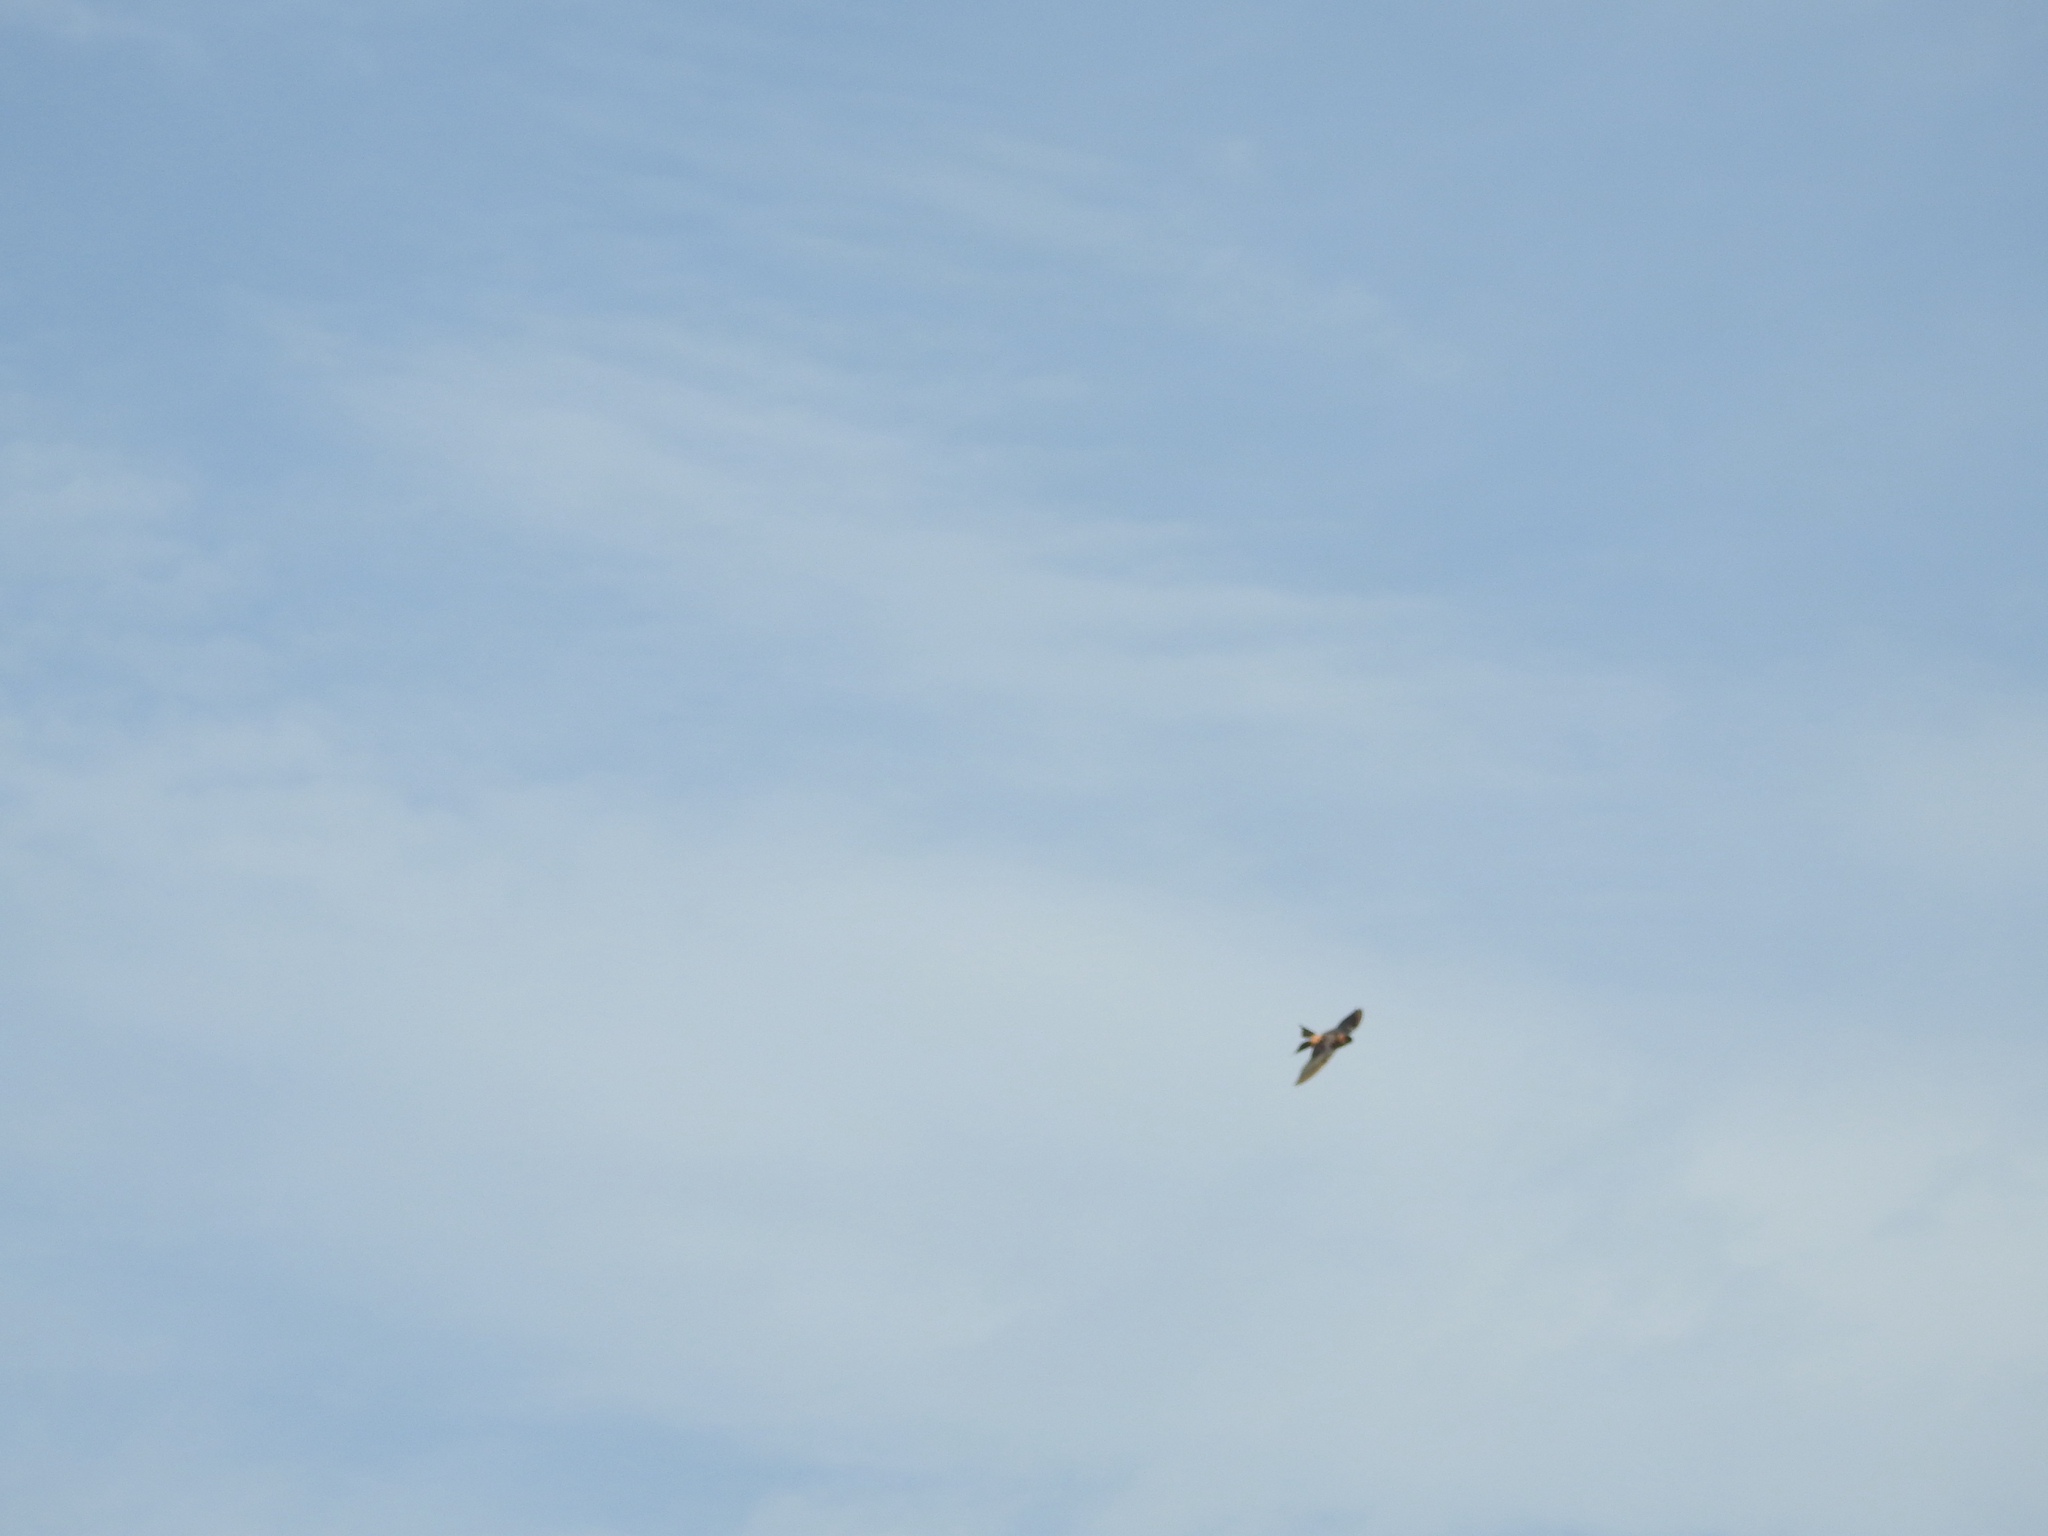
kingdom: Animalia
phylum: Chordata
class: Aves
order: Passeriformes
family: Hirundinidae
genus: Cecropis
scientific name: Cecropis daurica
